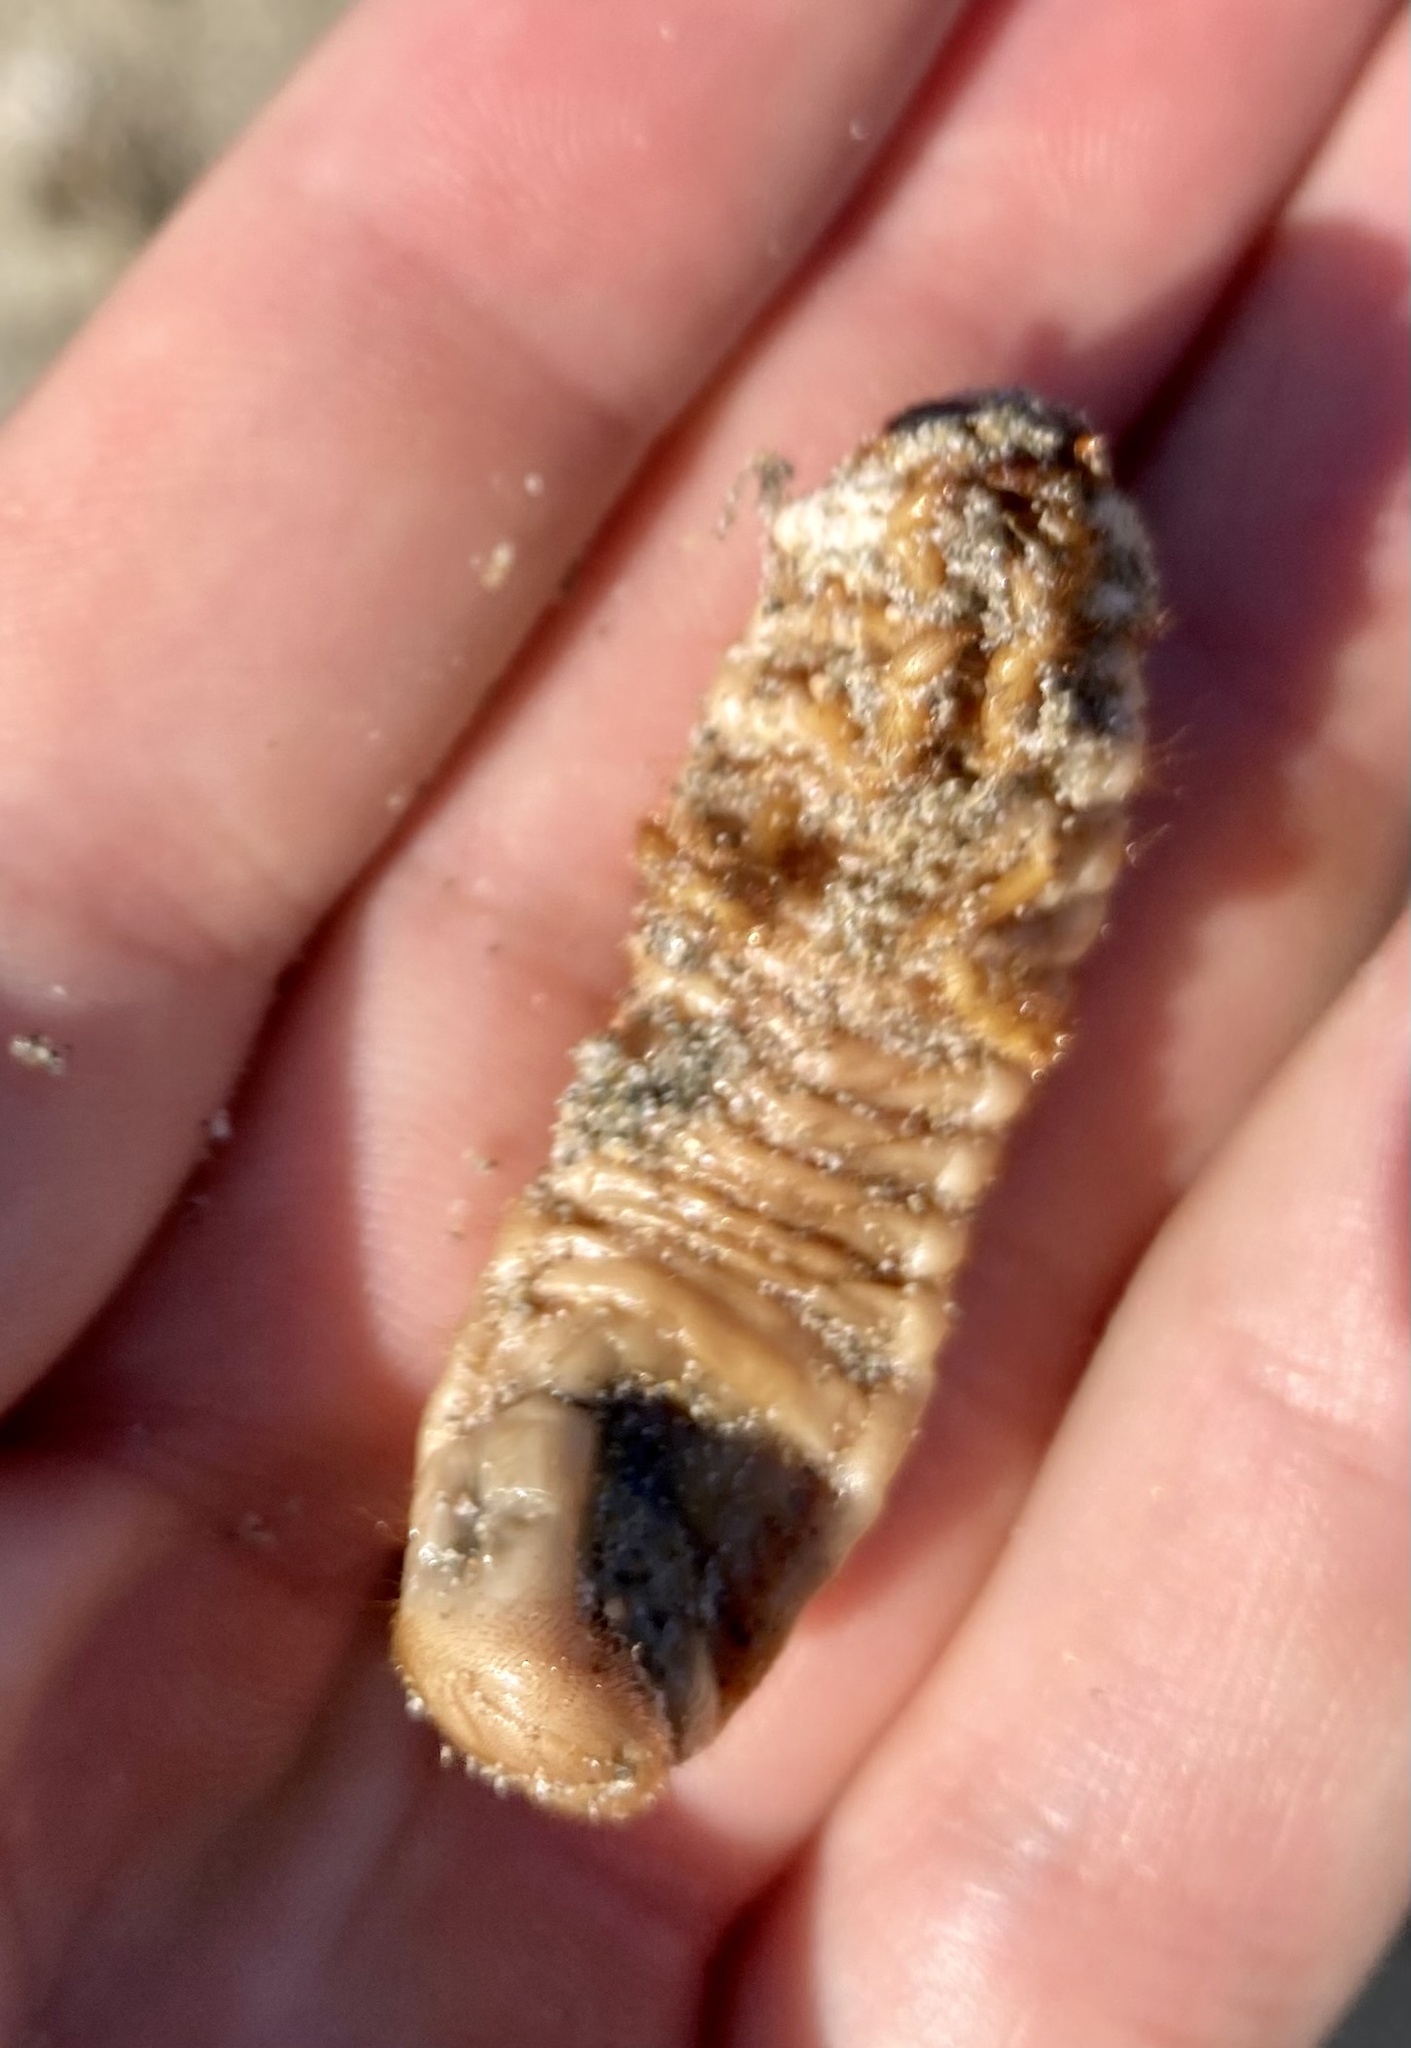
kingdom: Fungi
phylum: Ascomycota
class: Sordariomycetes
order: Hypocreales
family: Ophiocordycipitaceae
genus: Ophiocordyceps
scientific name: Ophiocordyceps ravenelii
